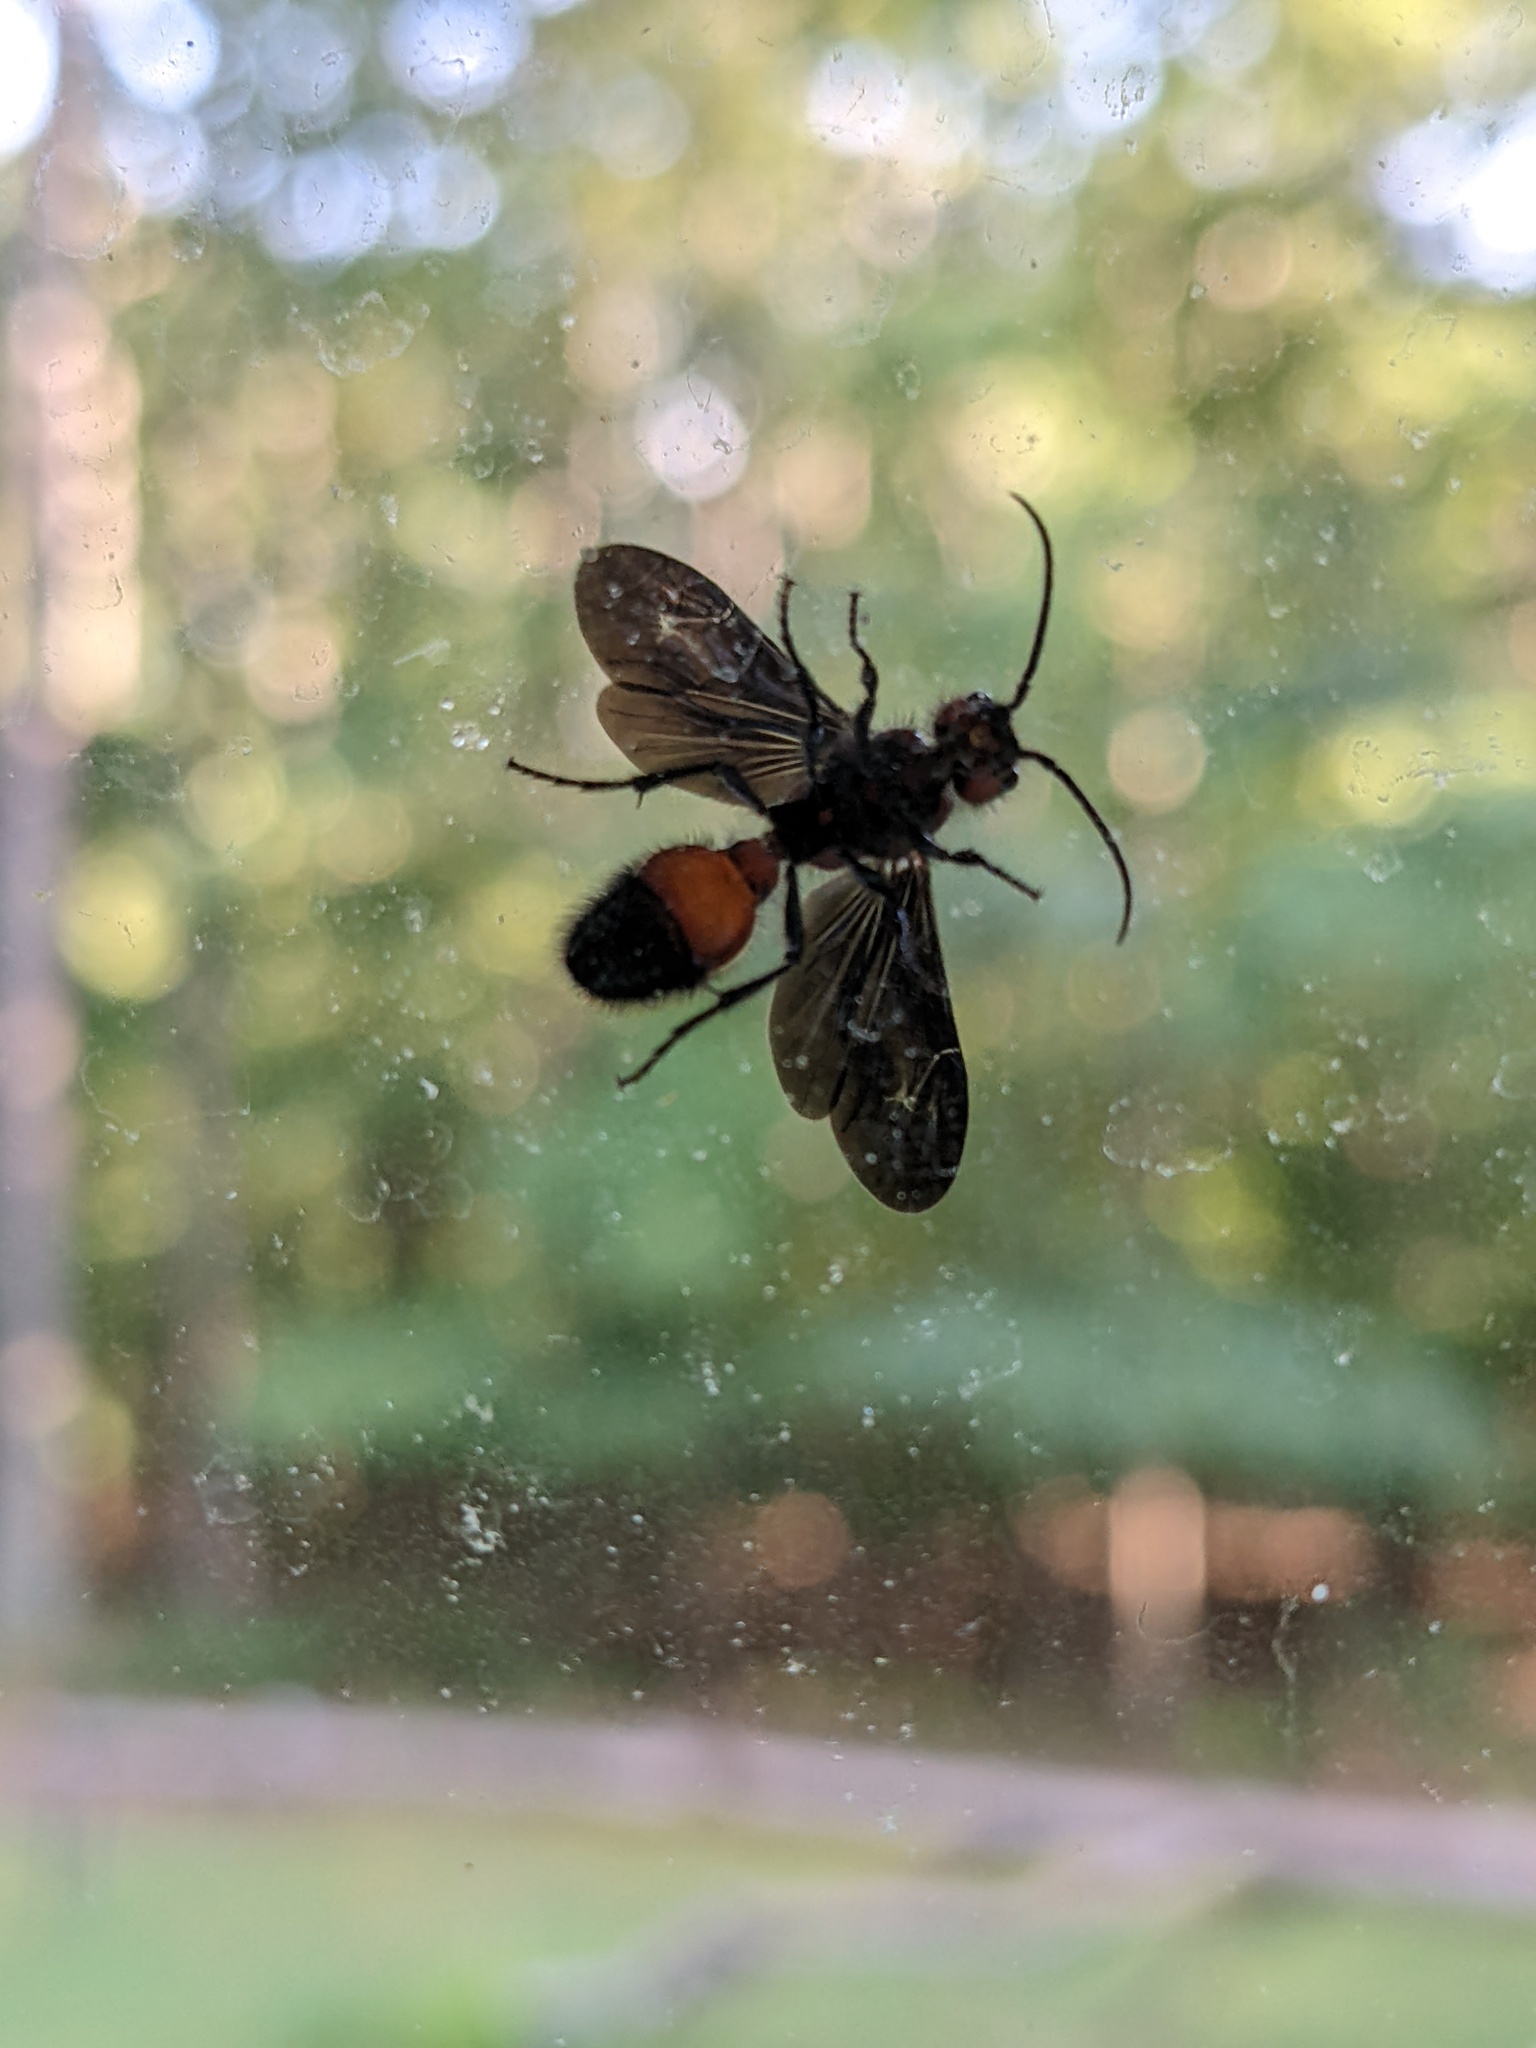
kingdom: Animalia
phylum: Arthropoda
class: Insecta
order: Hymenoptera
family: Mutillidae
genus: Sphaeropthalma
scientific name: Sphaeropthalma
